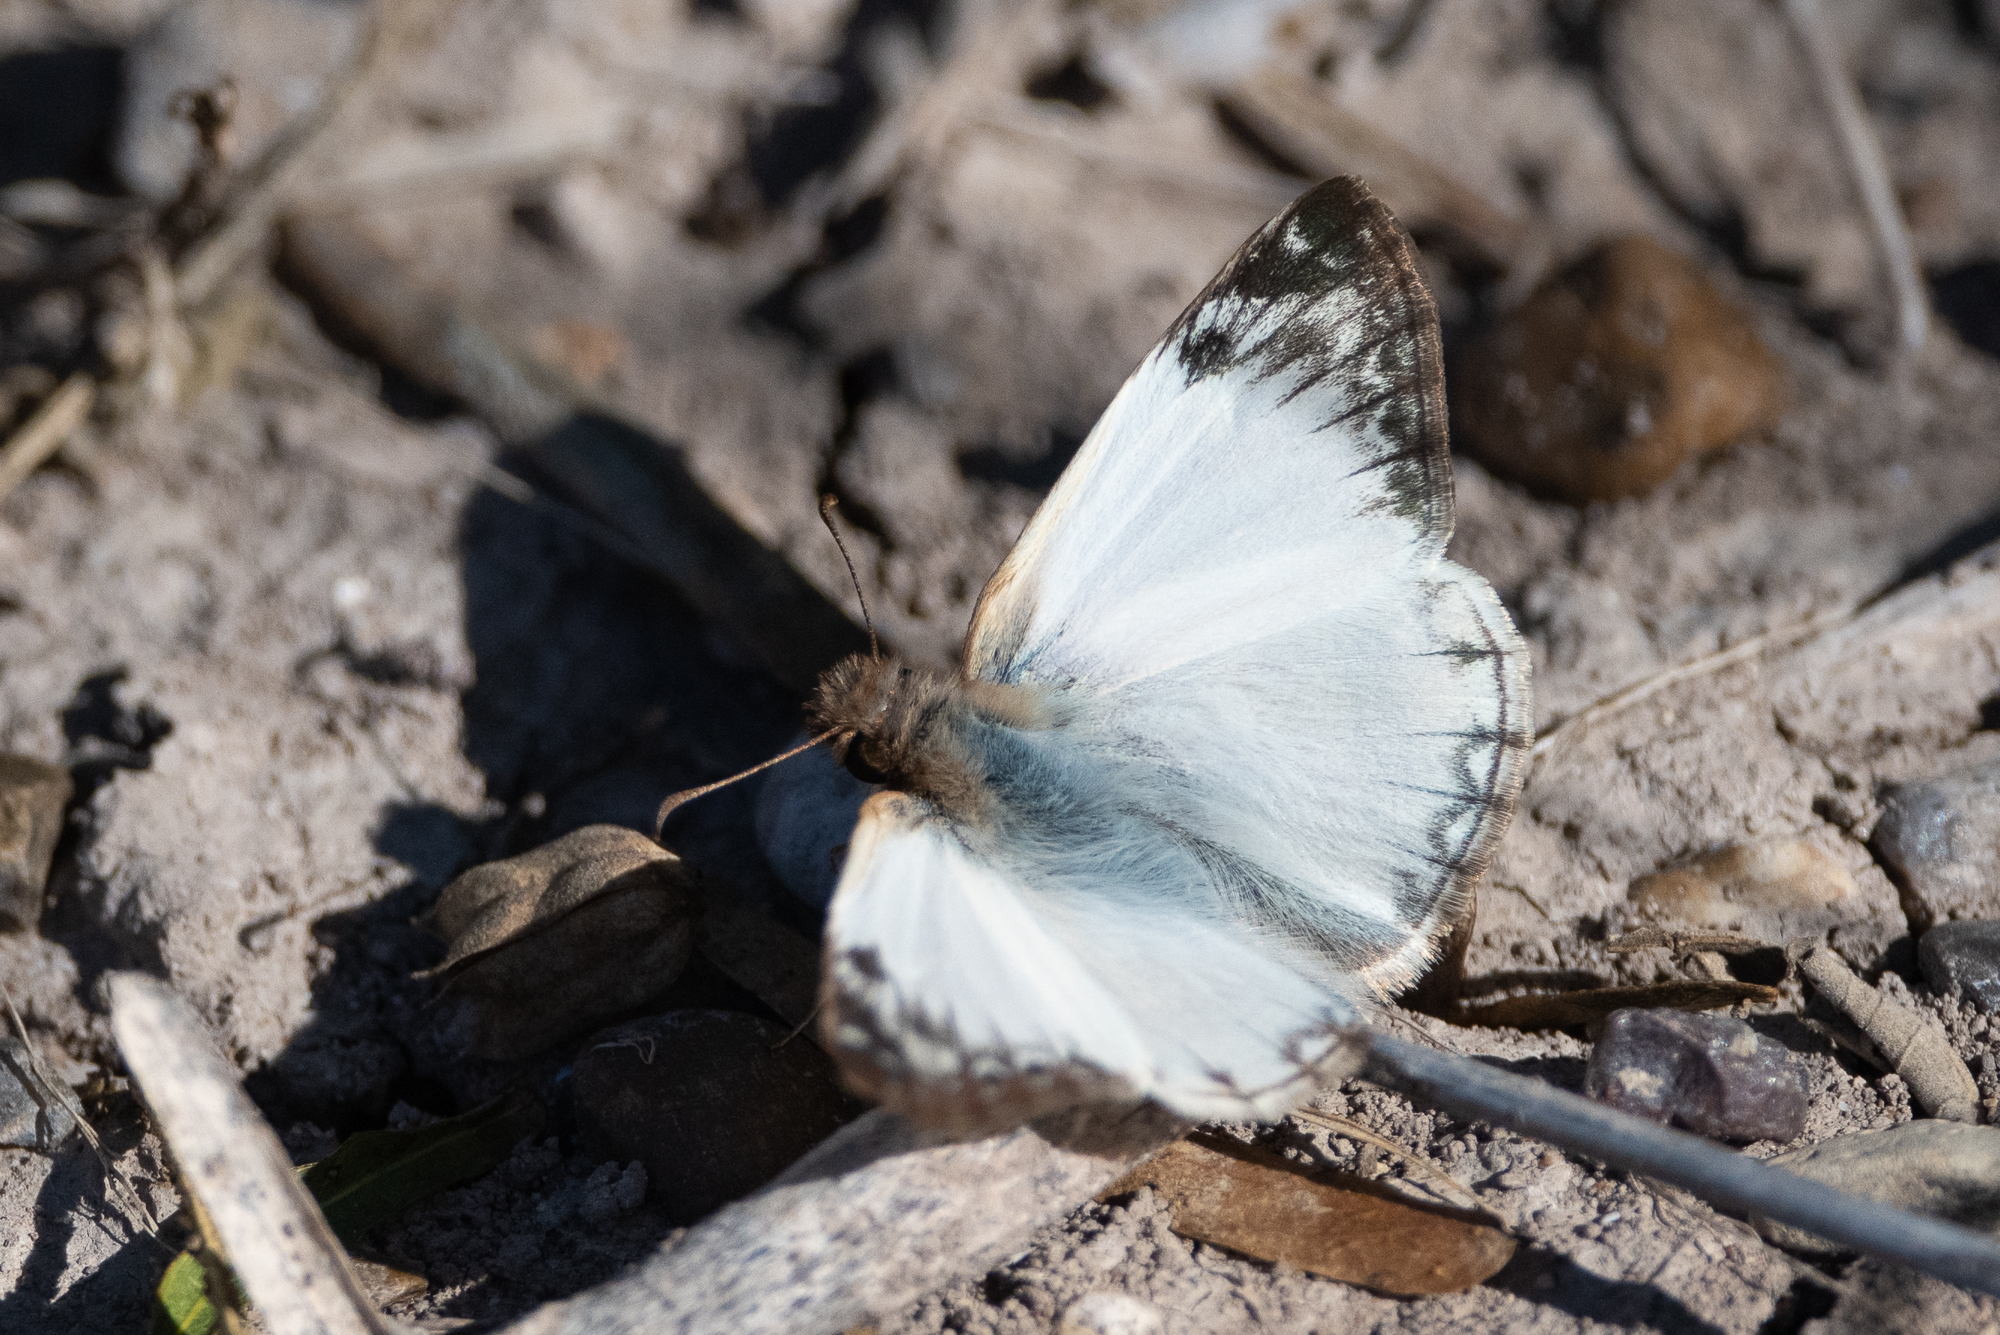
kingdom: Animalia
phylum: Arthropoda
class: Insecta
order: Lepidoptera
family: Hesperiidae
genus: Heliopetes
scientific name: Heliopetes laviana
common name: Laviana white-skipper
